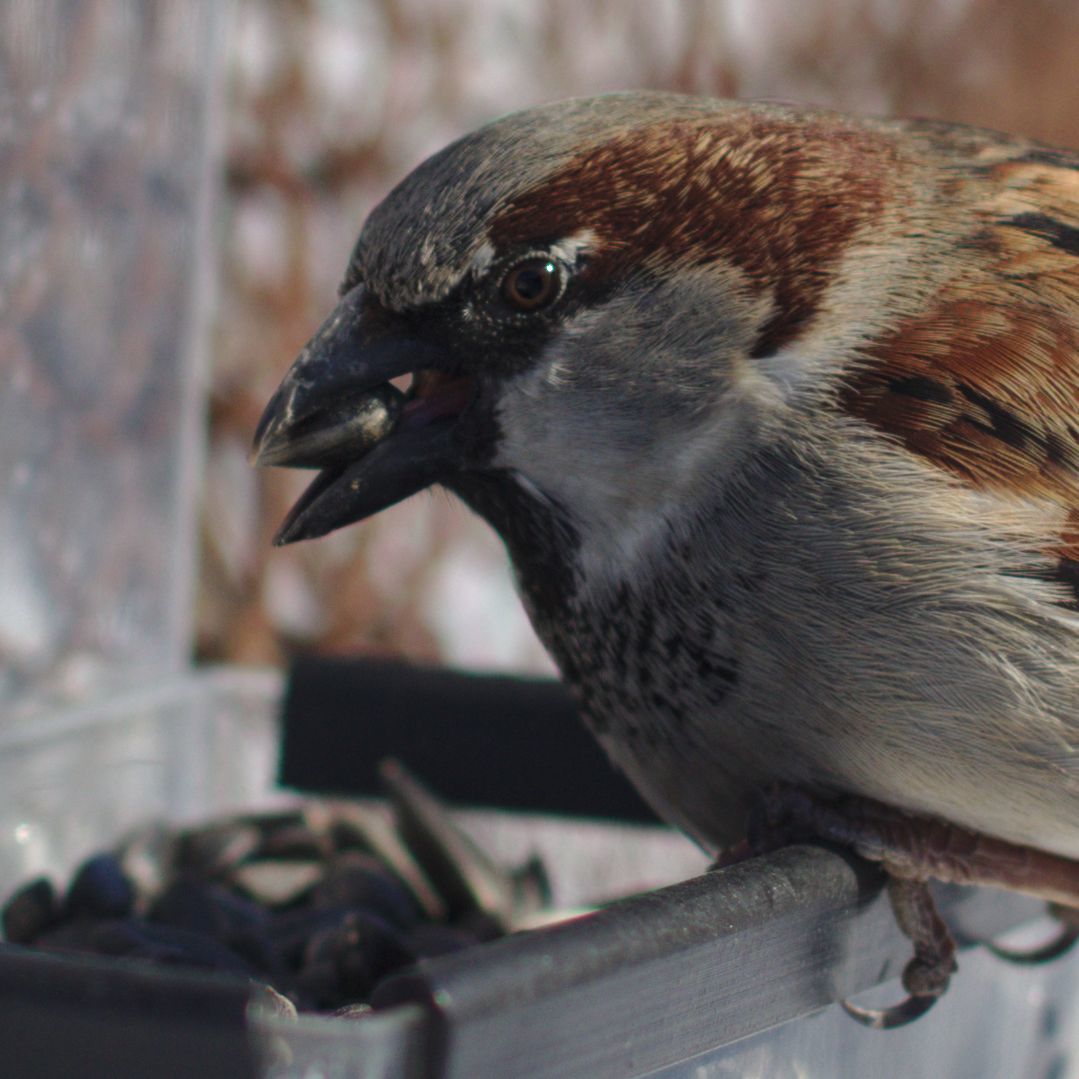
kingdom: Animalia
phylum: Chordata
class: Aves
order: Passeriformes
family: Passeridae
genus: Passer
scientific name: Passer domesticus
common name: House sparrow
